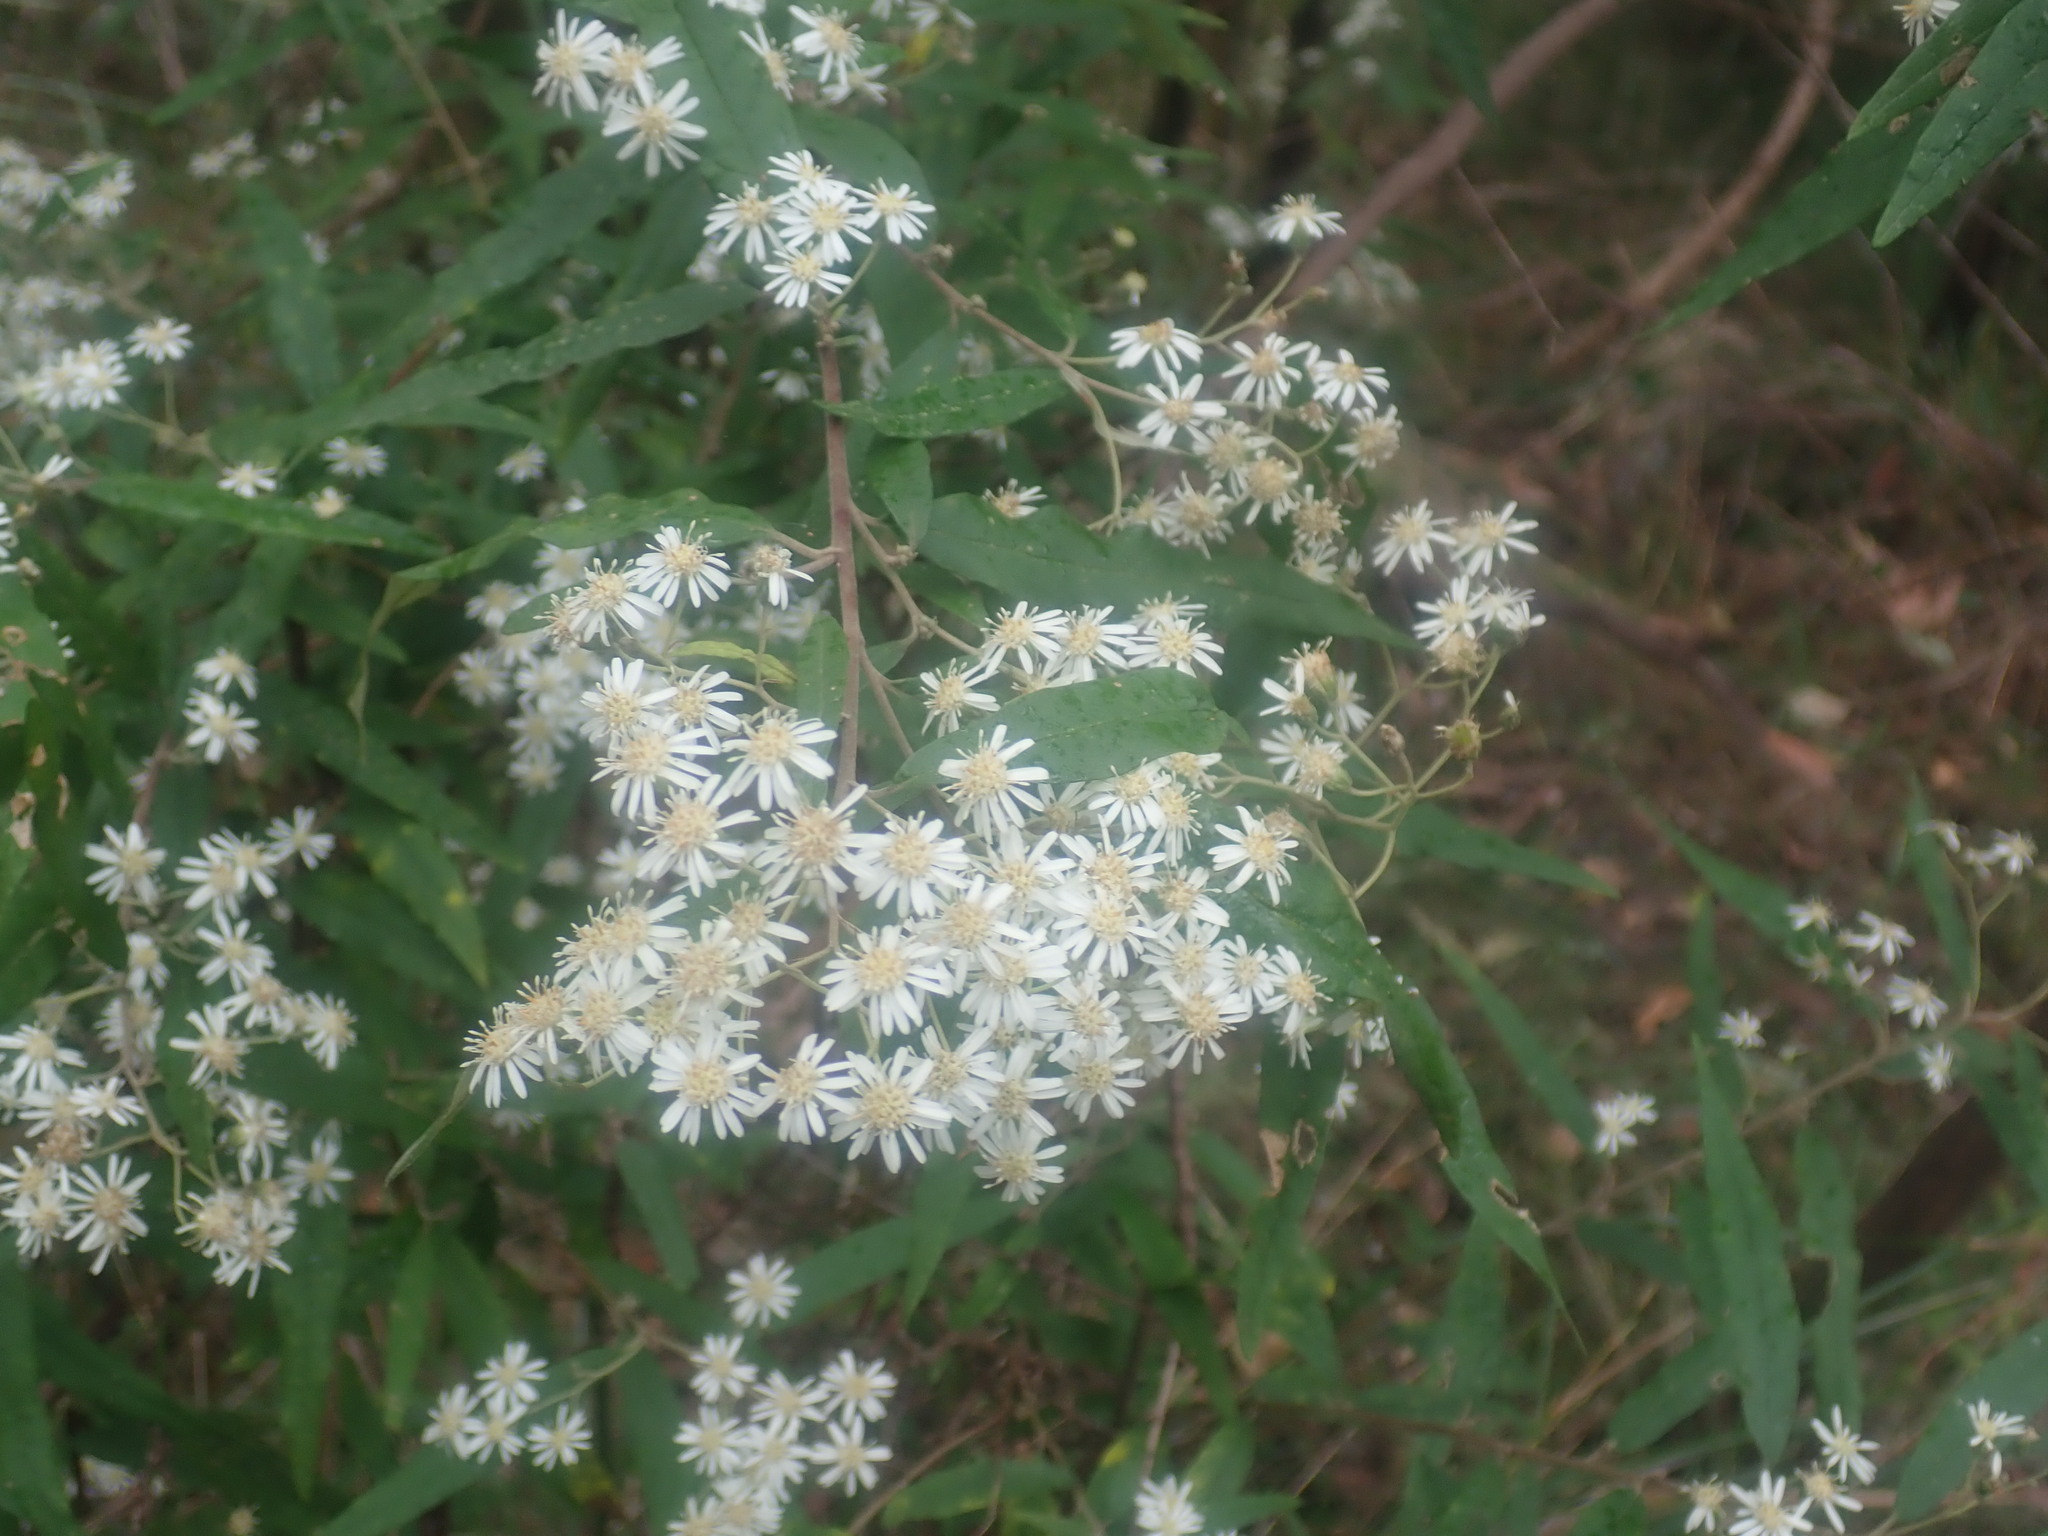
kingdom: Plantae
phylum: Tracheophyta
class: Magnoliopsida
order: Asterales
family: Asteraceae
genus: Olearia
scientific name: Olearia lirata
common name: Dusty daisybush
